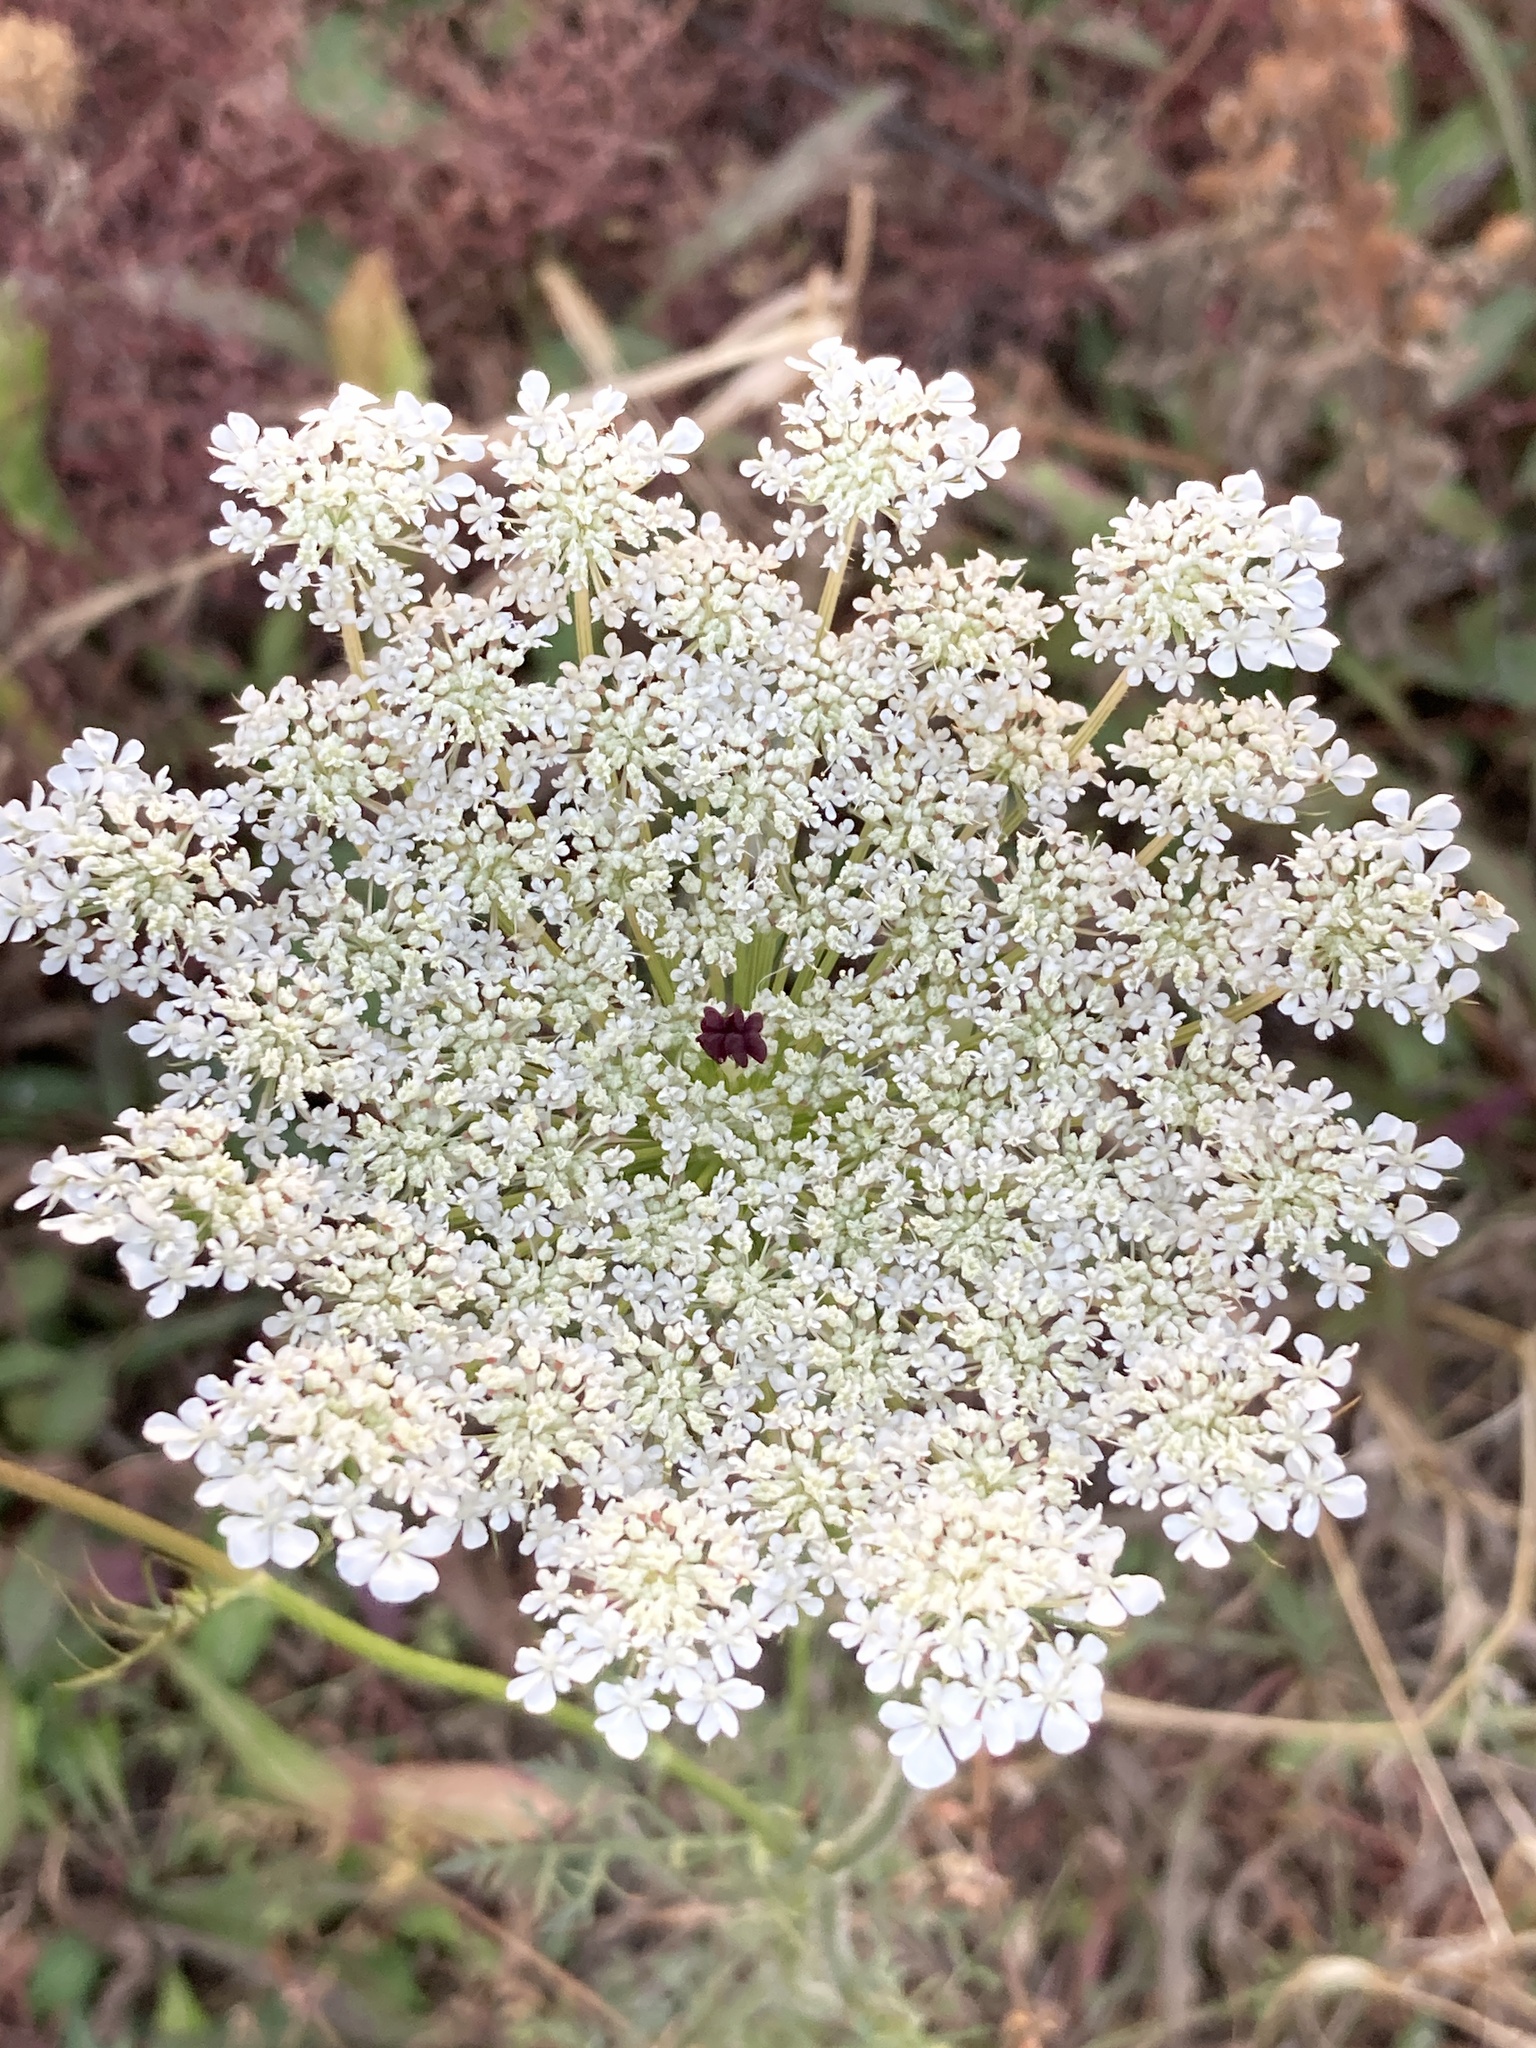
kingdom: Plantae
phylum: Tracheophyta
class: Magnoliopsida
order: Apiales
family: Apiaceae
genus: Daucus
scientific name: Daucus carota
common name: Wild carrot
